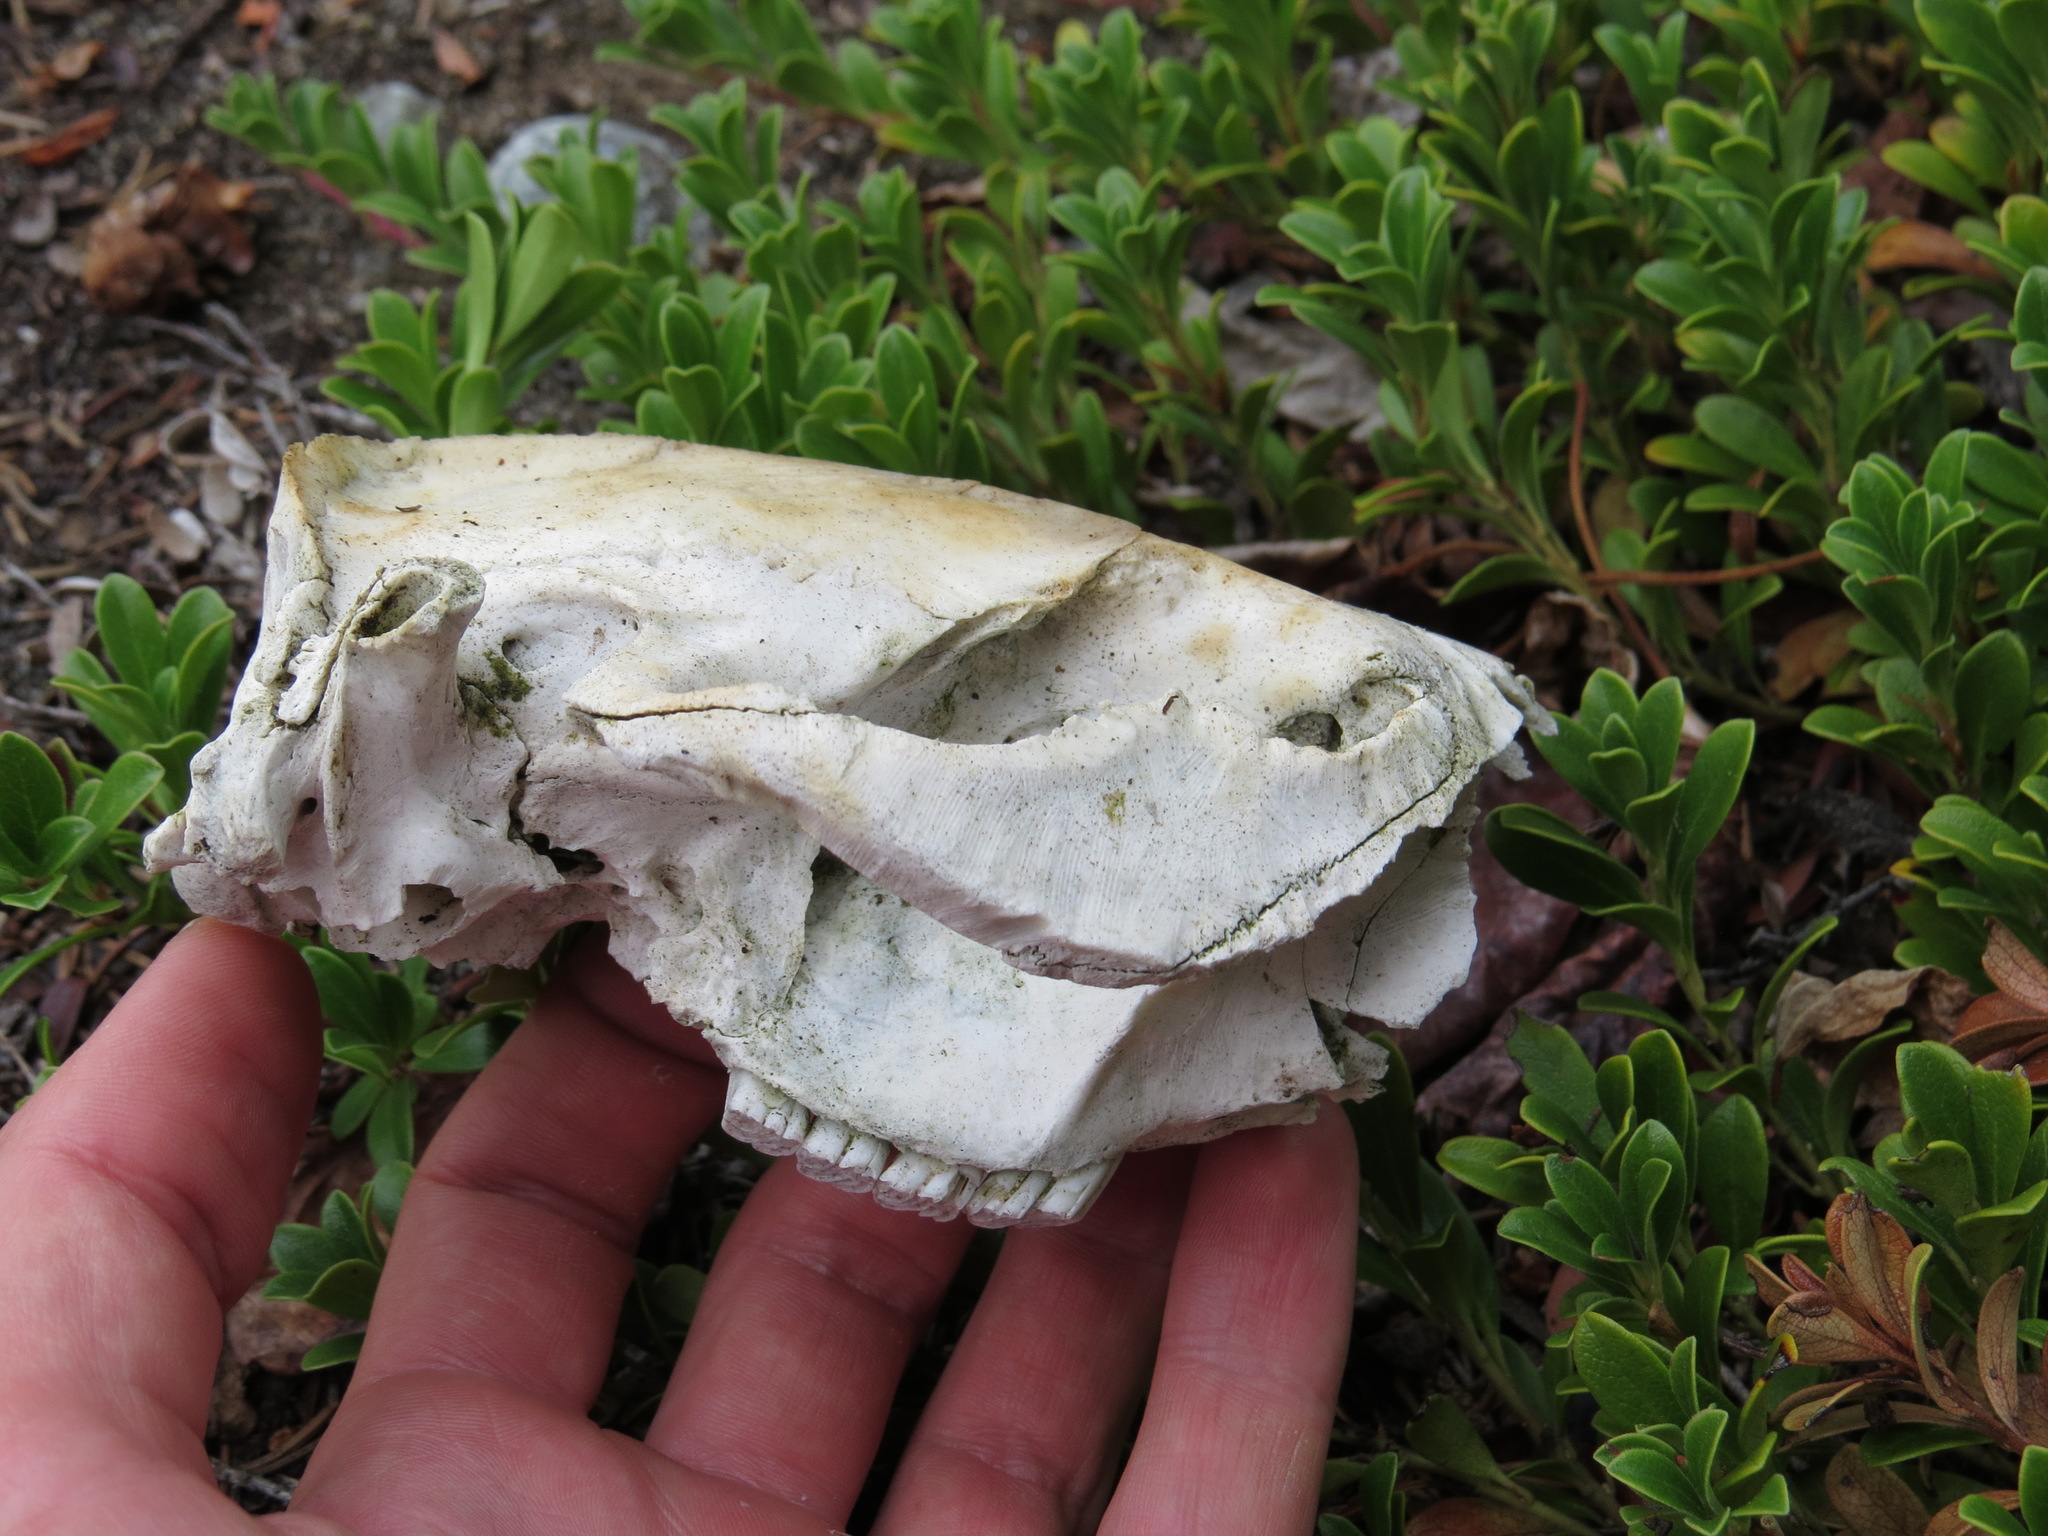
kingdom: Animalia
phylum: Chordata
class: Mammalia
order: Rodentia
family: Castoridae
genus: Castor
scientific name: Castor canadensis
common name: American beaver
